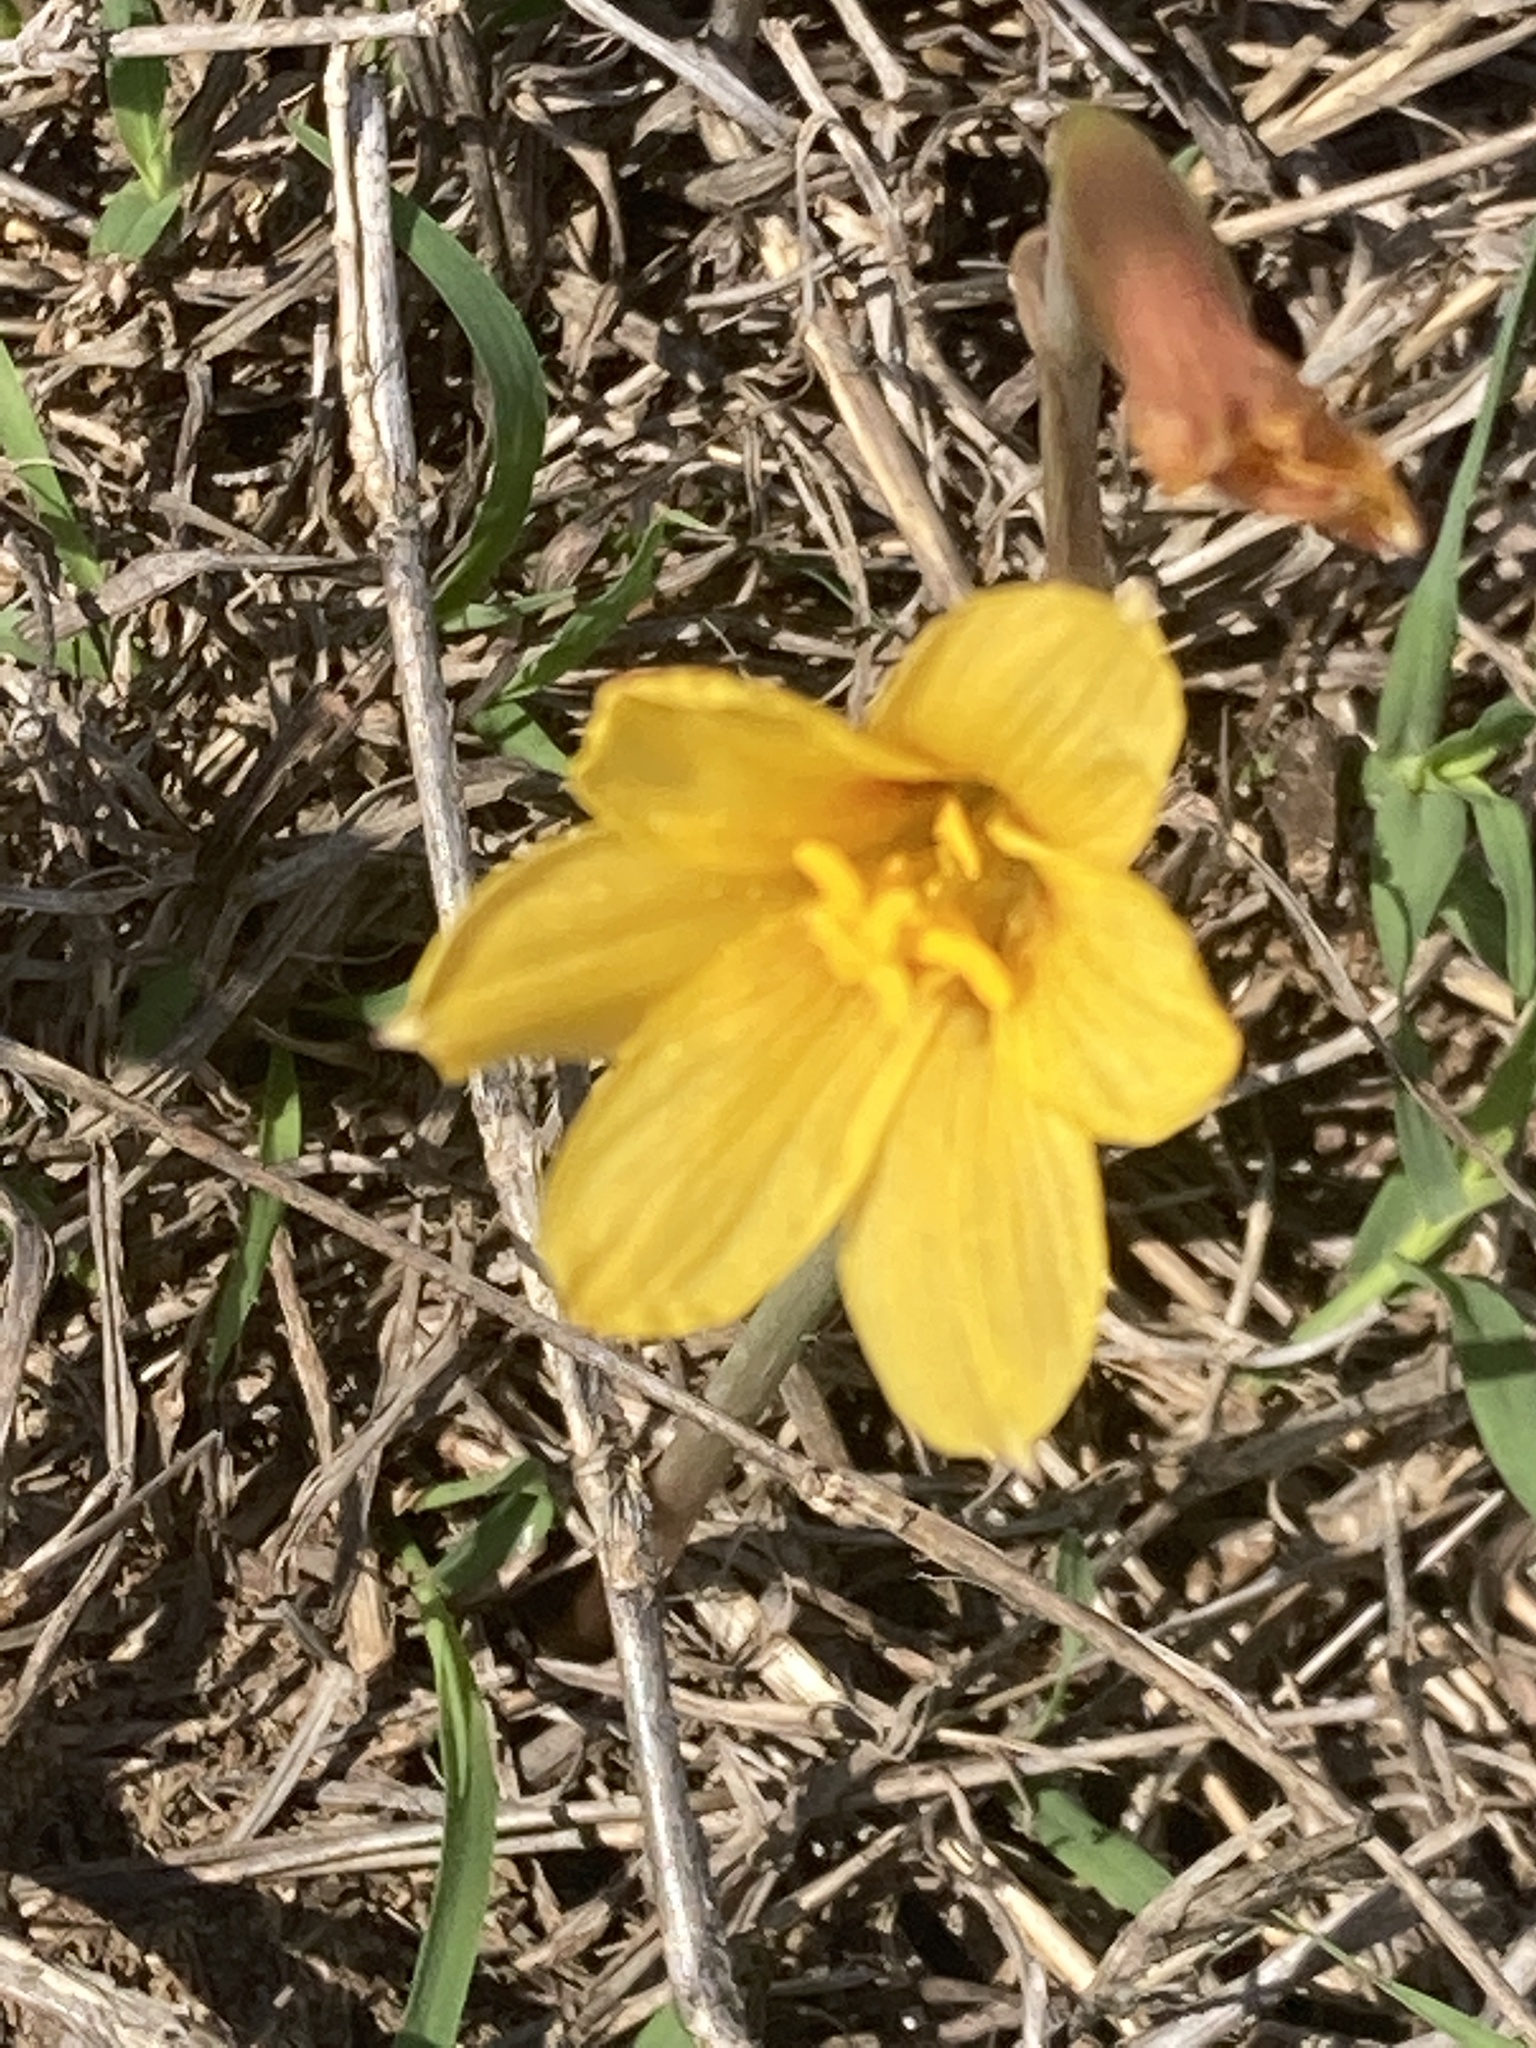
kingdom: Plantae
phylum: Tracheophyta
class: Liliopsida
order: Asparagales
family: Amaryllidaceae
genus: Zephyranthes
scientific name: Zephyranthes tubispatha
